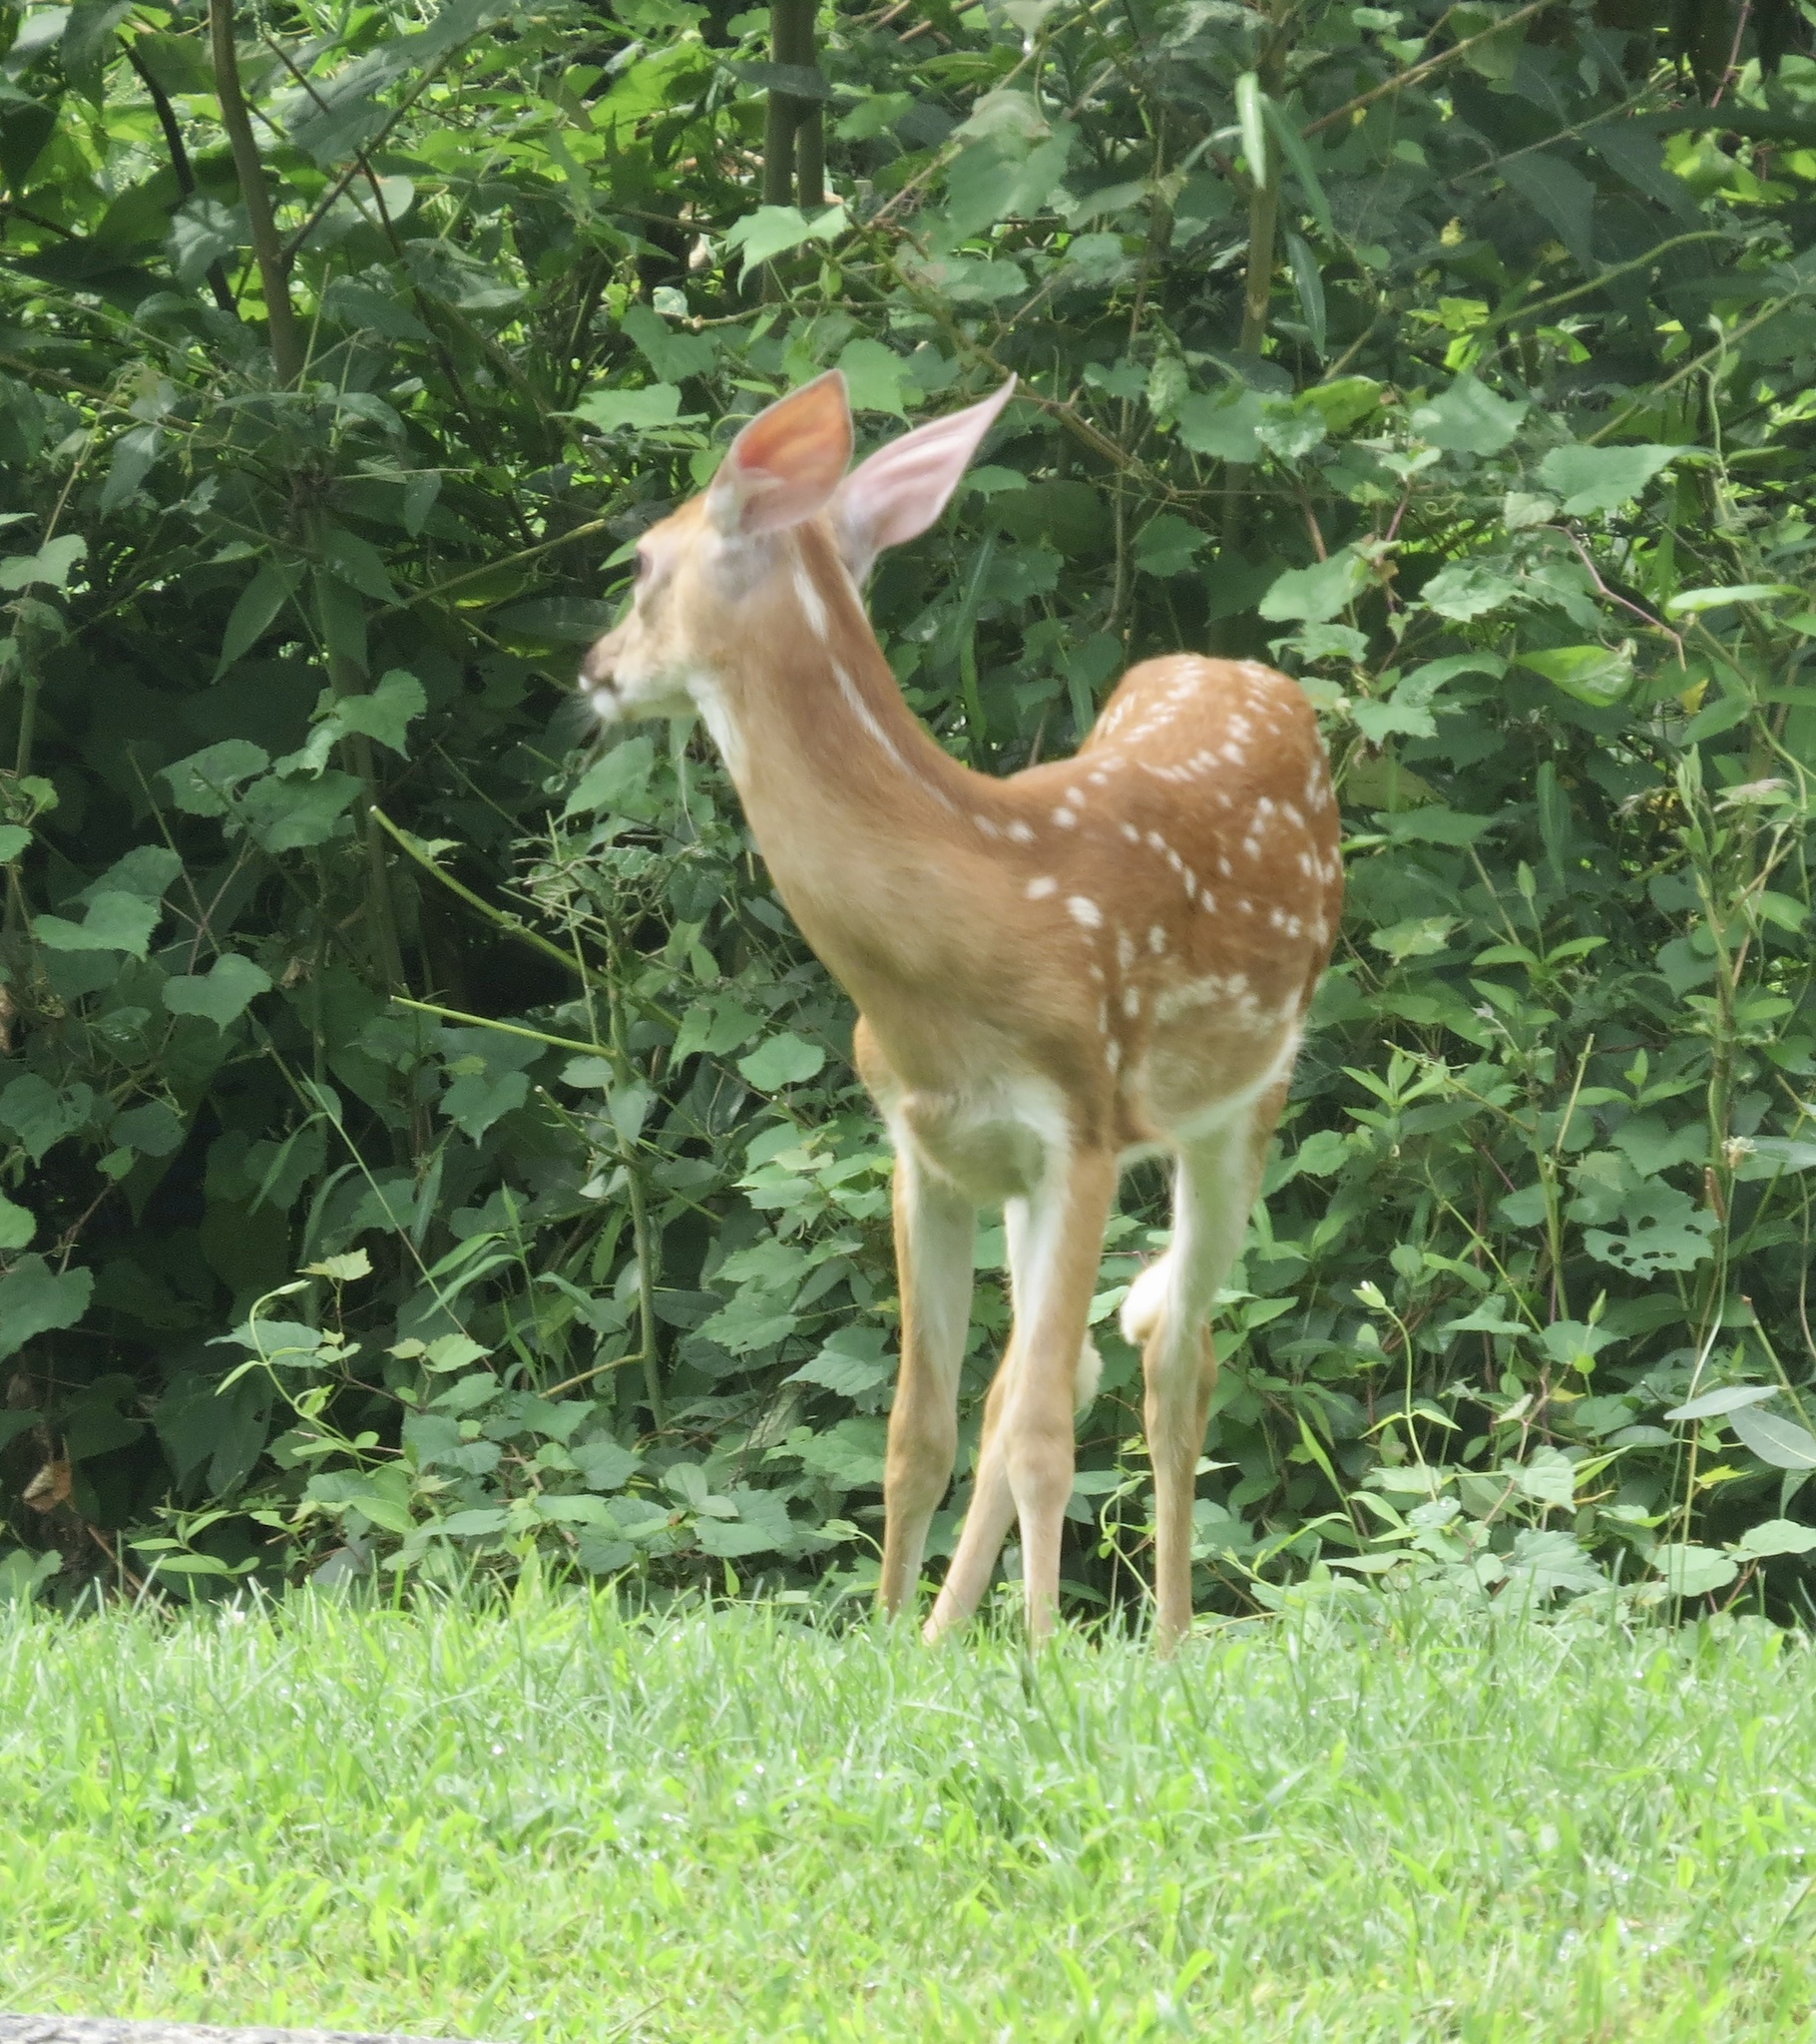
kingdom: Animalia
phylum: Chordata
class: Mammalia
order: Artiodactyla
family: Cervidae
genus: Odocoileus
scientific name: Odocoileus virginianus
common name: White-tailed deer
